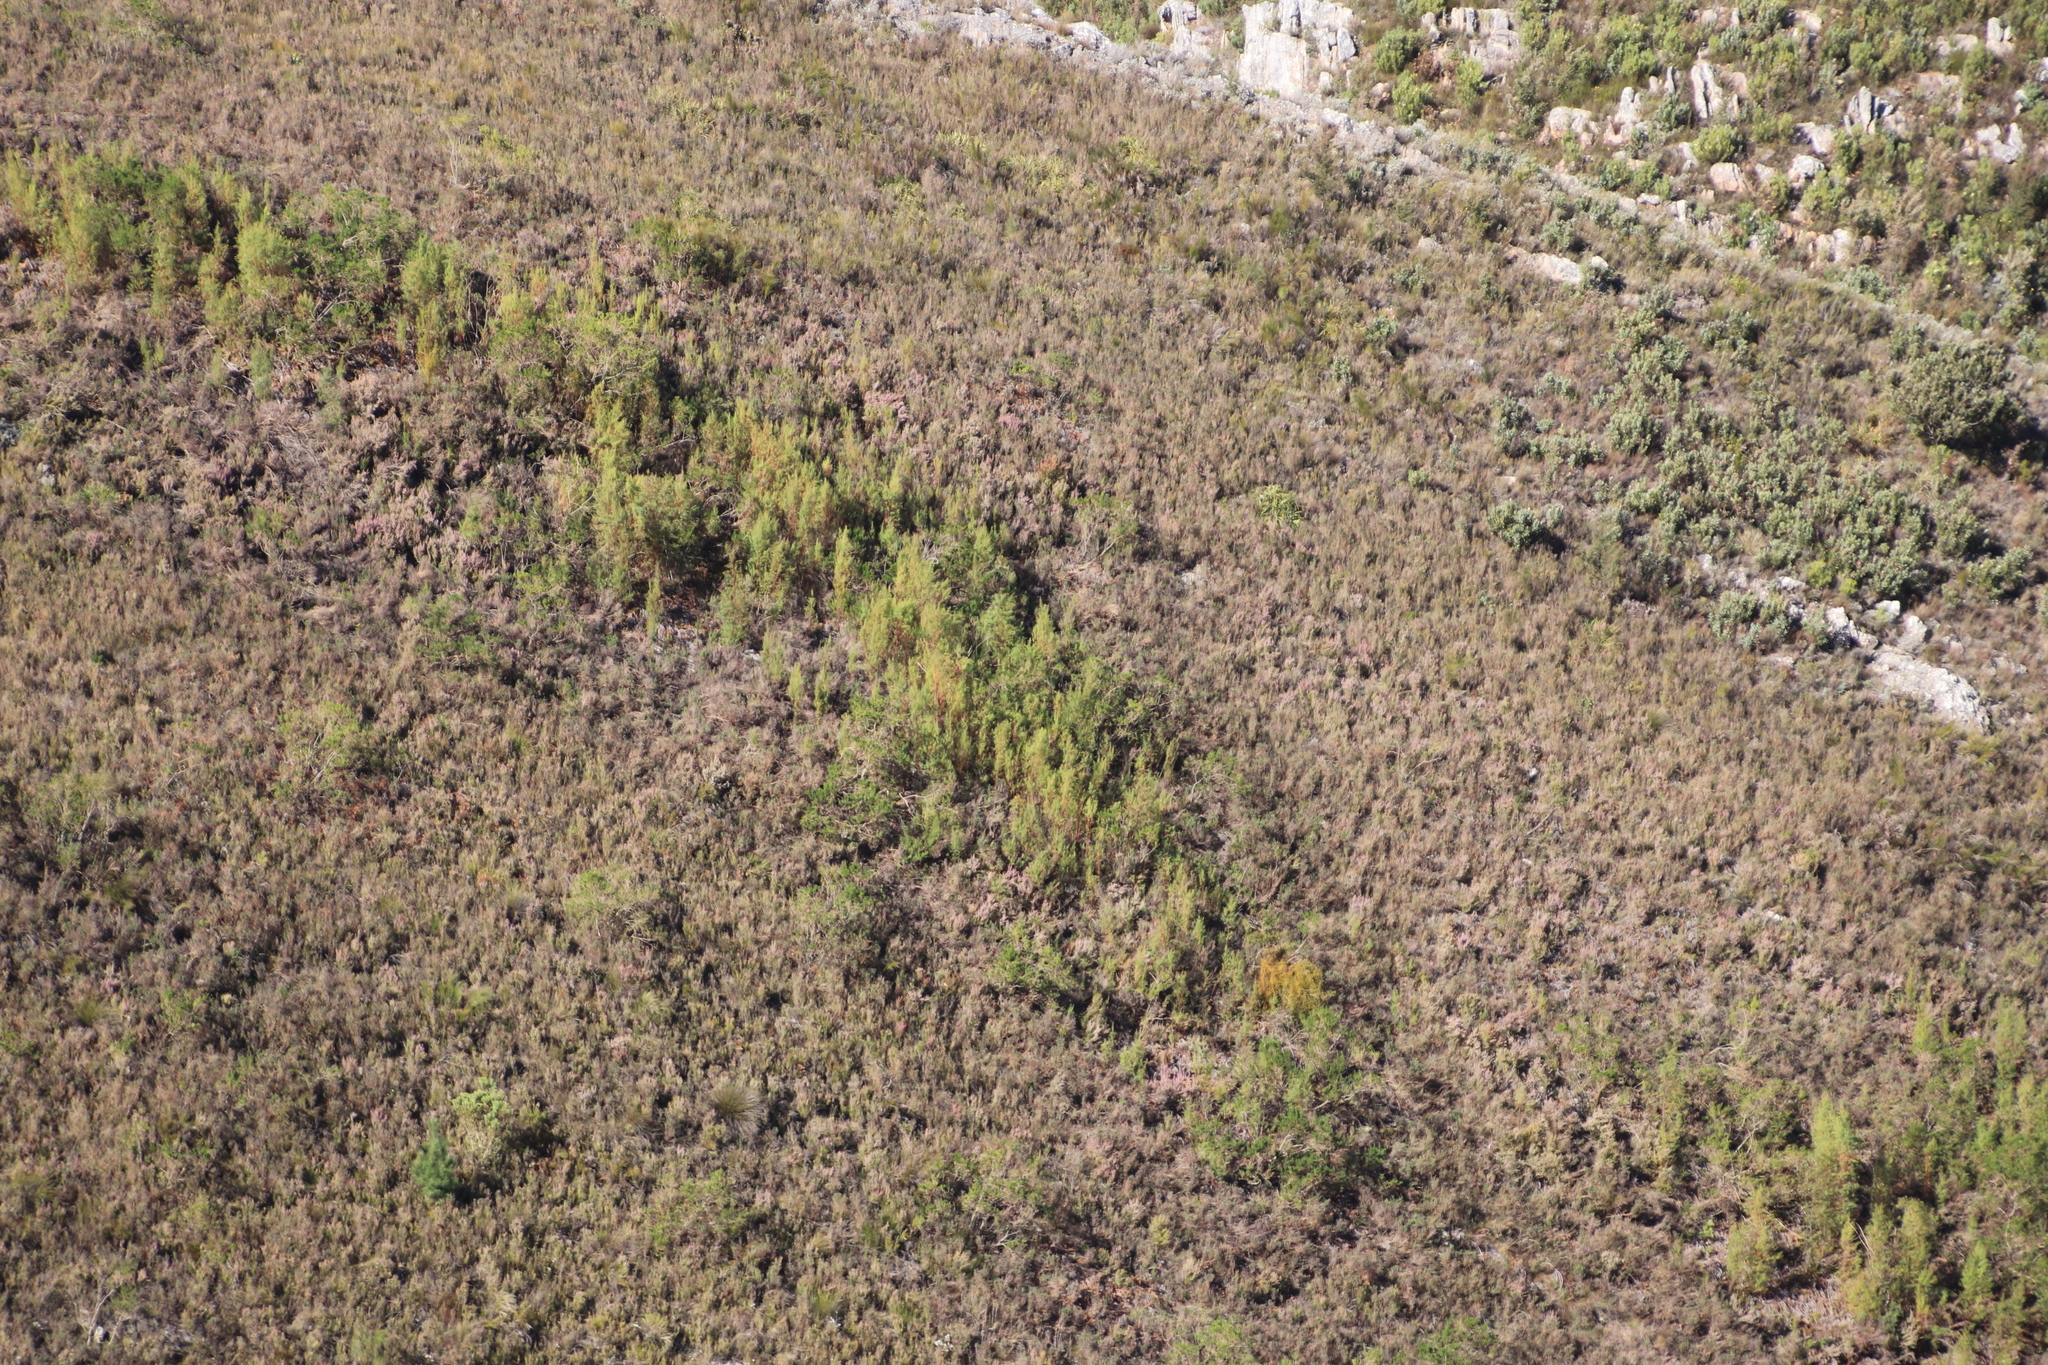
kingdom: Plantae
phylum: Tracheophyta
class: Magnoliopsida
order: Proteales
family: Proteaceae
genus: Leucadendron
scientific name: Leucadendron salicifolium
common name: Common stream conebush
